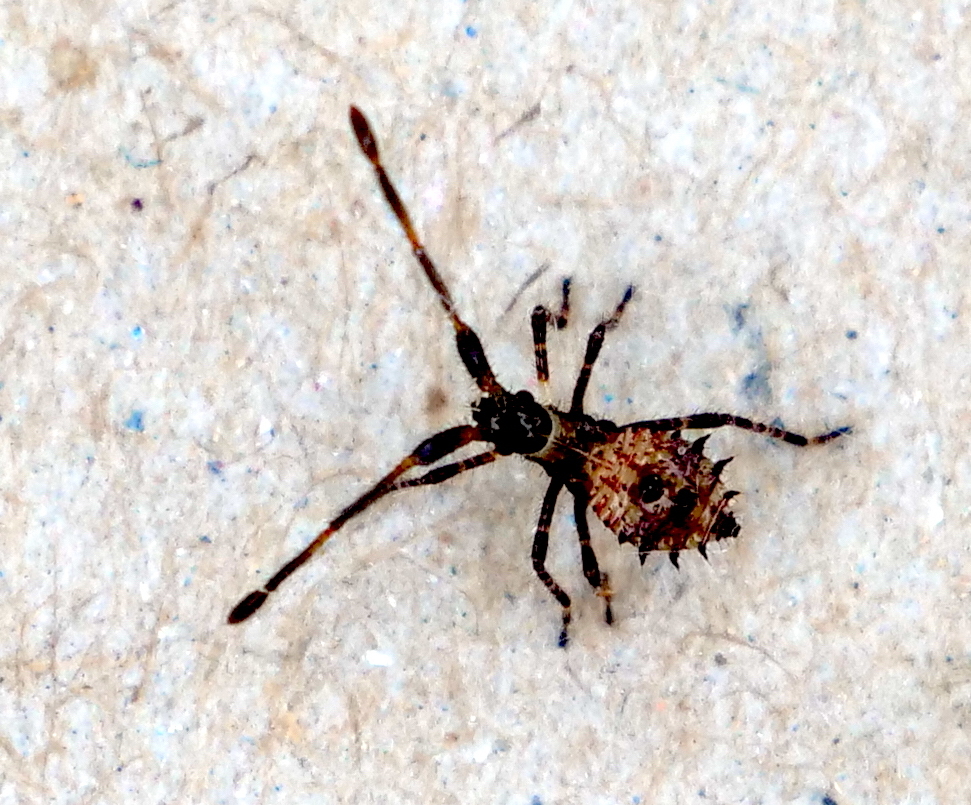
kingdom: Animalia
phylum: Arthropoda
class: Insecta
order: Hemiptera
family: Coreidae
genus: Coreus
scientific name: Coreus marginatus
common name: Dock bug
